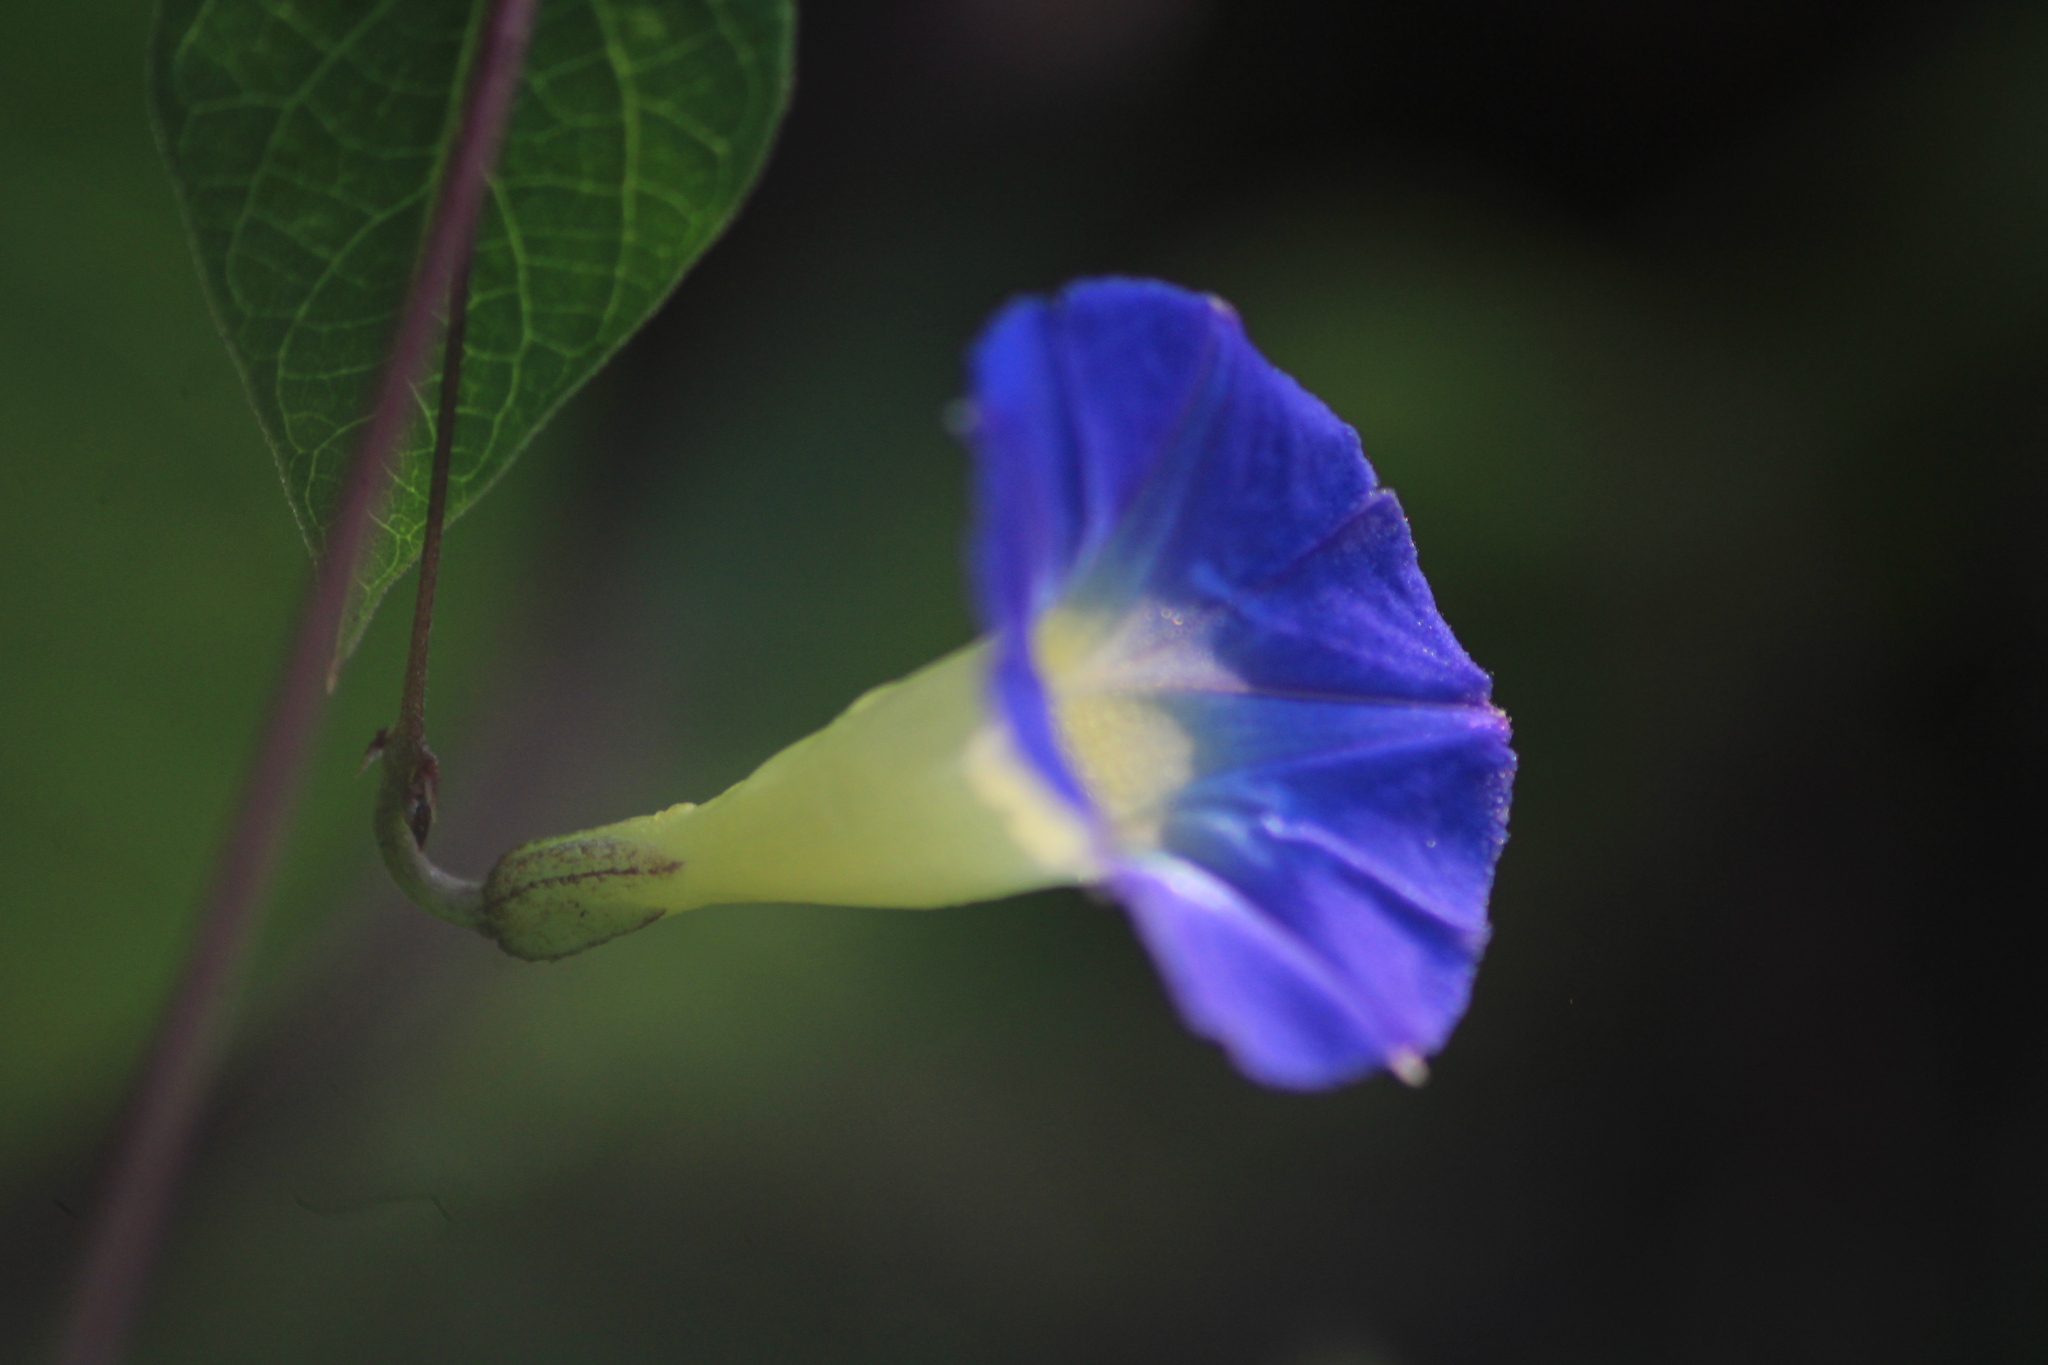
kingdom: Plantae
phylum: Tracheophyta
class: Magnoliopsida
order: Solanales
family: Convolvulaceae
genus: Ipomoea
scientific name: Ipomoea aristolochiifolia
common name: Aristolochia-leaved morning-glory
